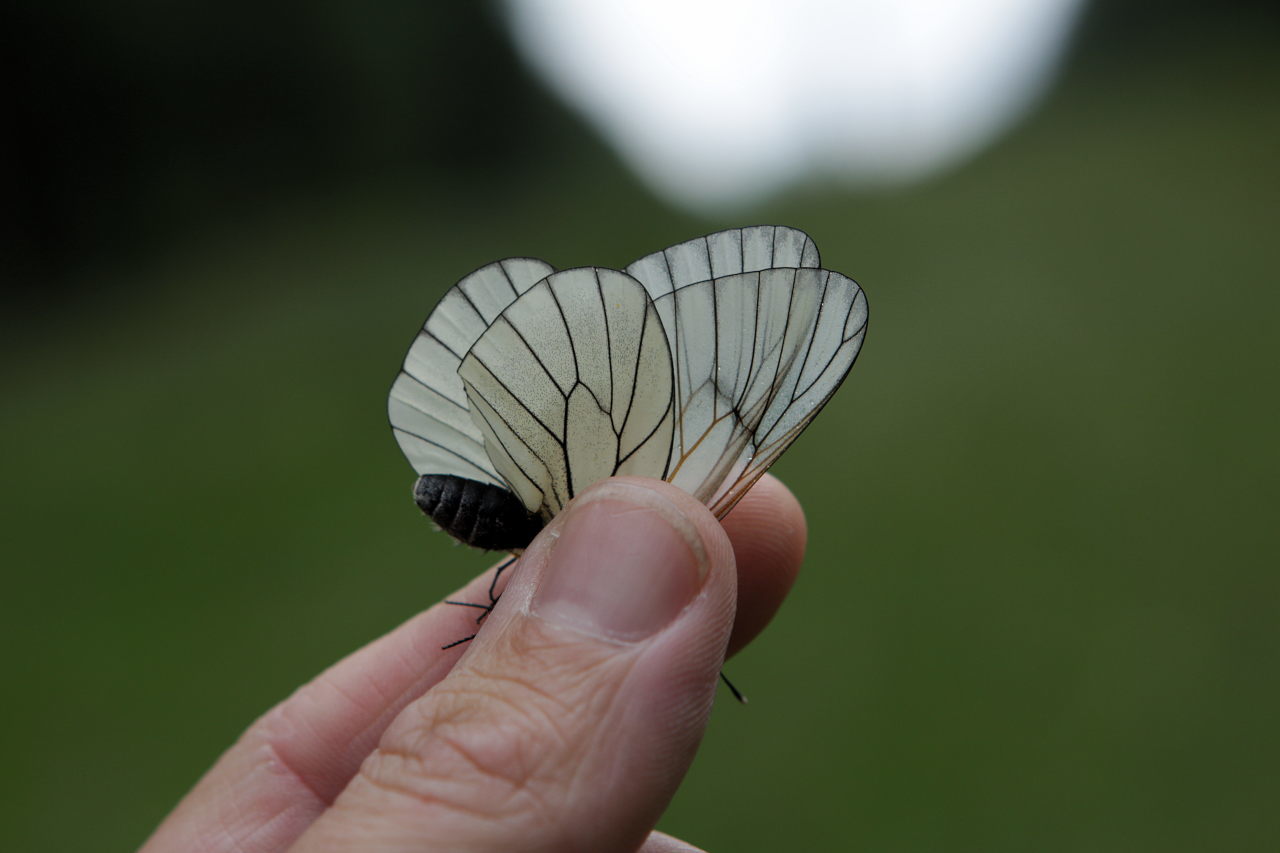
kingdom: Animalia
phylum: Arthropoda
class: Insecta
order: Lepidoptera
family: Pieridae
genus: Aporia
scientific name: Aporia crataegi
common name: Black-veined white
